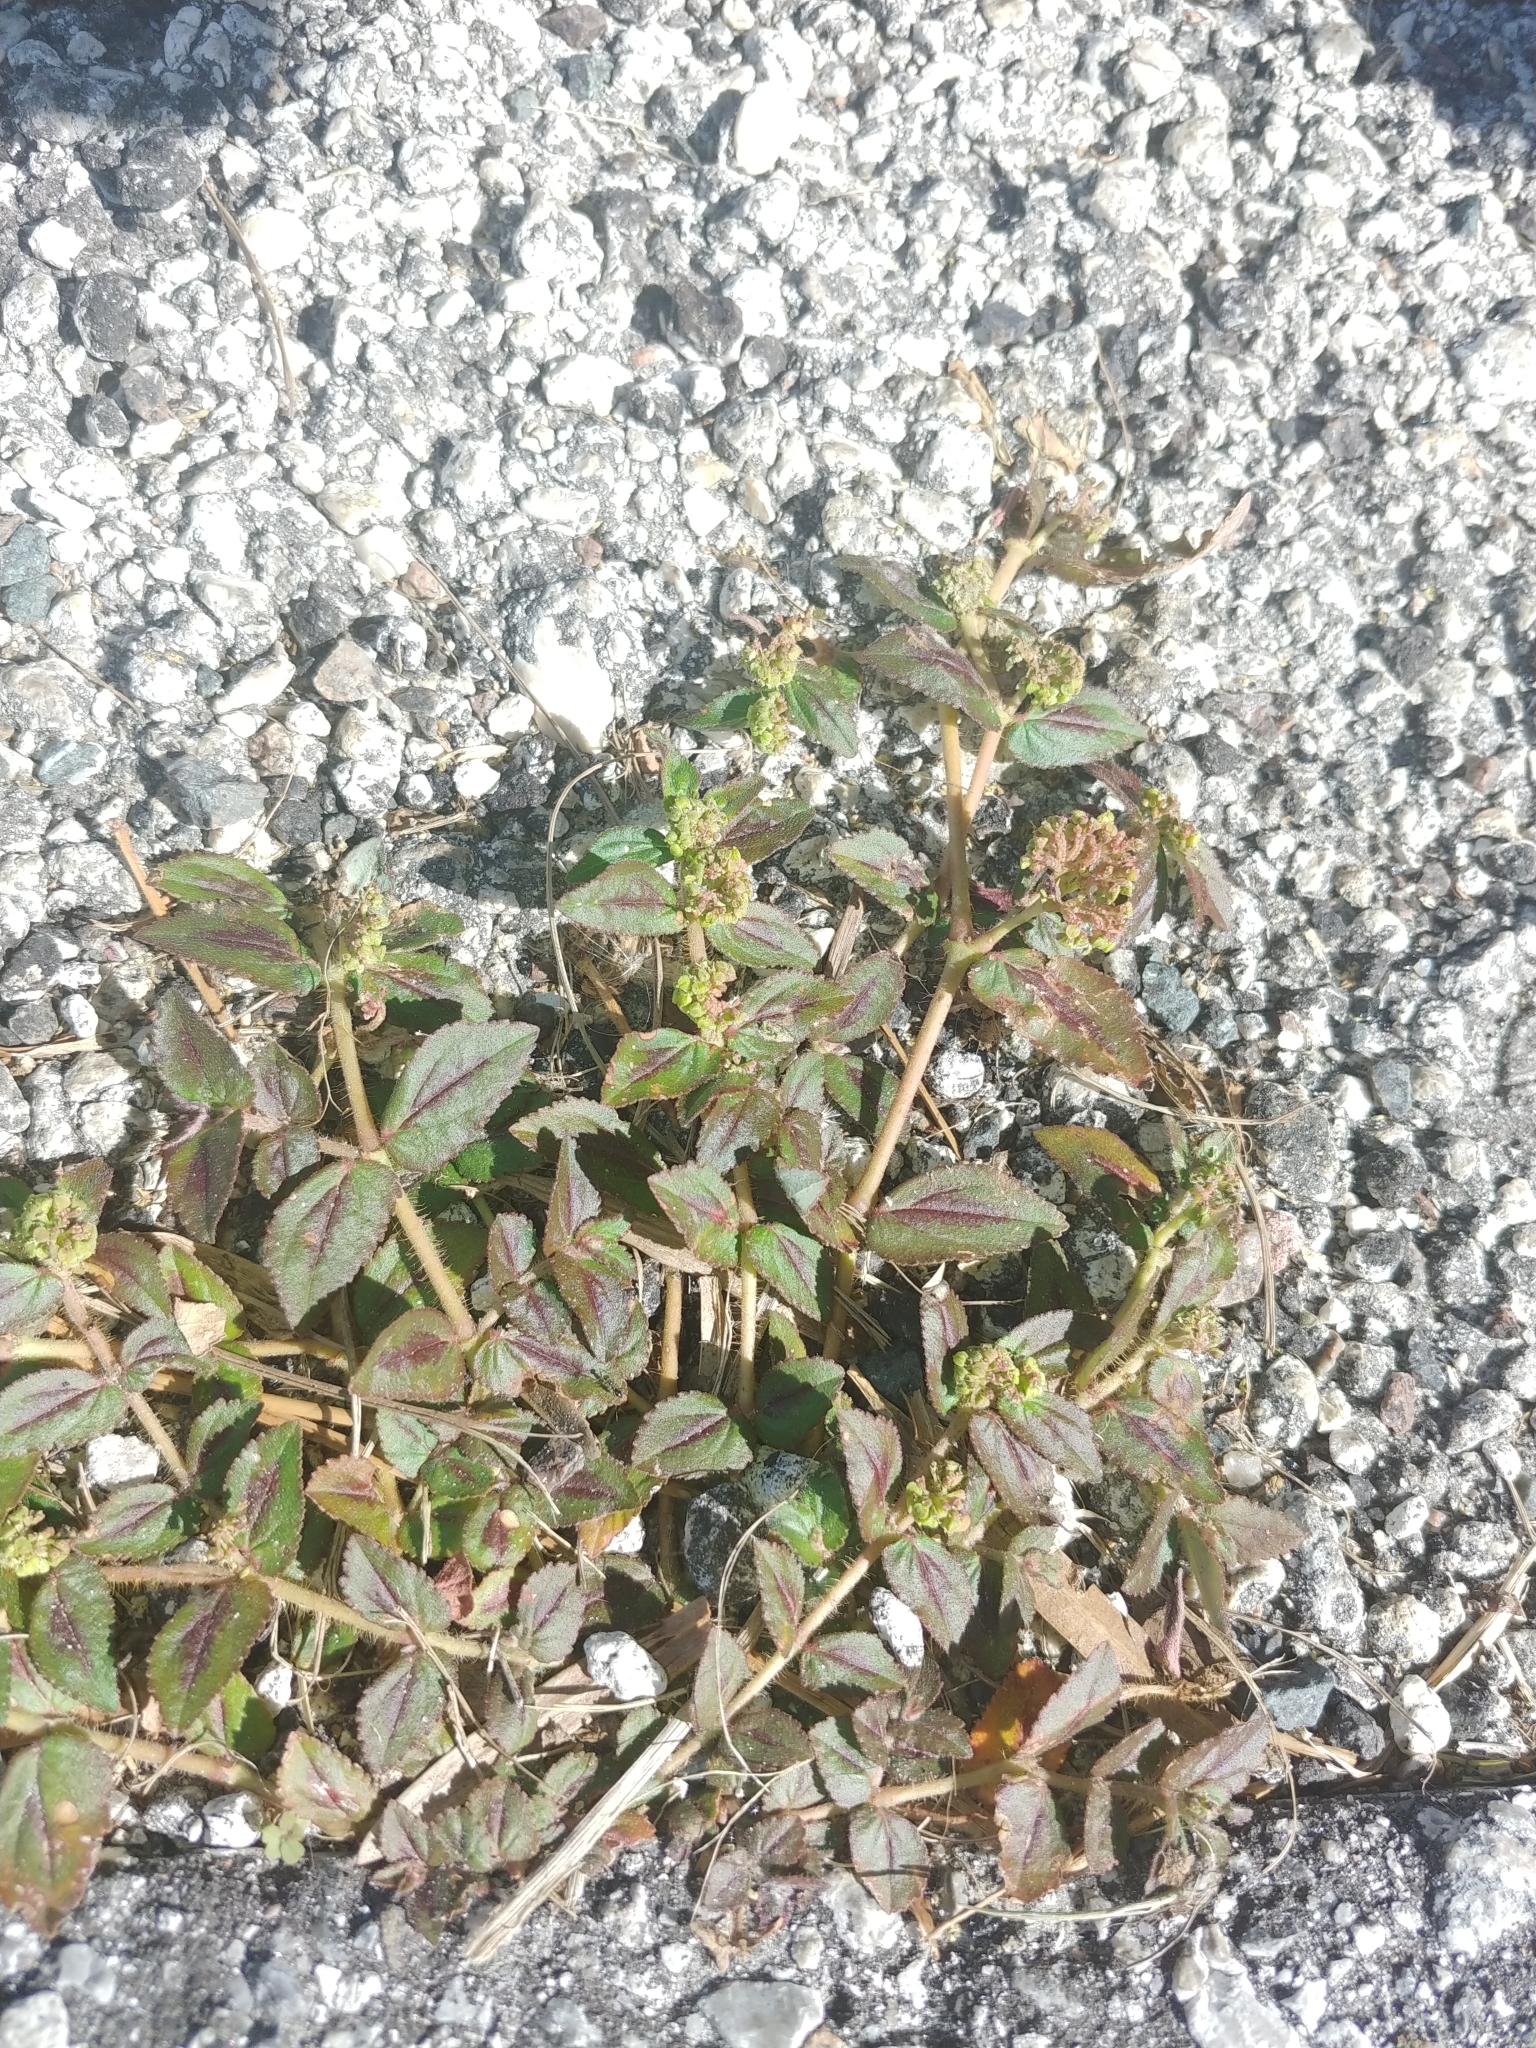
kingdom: Plantae
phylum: Tracheophyta
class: Magnoliopsida
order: Malpighiales
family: Euphorbiaceae
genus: Euphorbia
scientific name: Euphorbia hirta
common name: Pillpod sandmat
